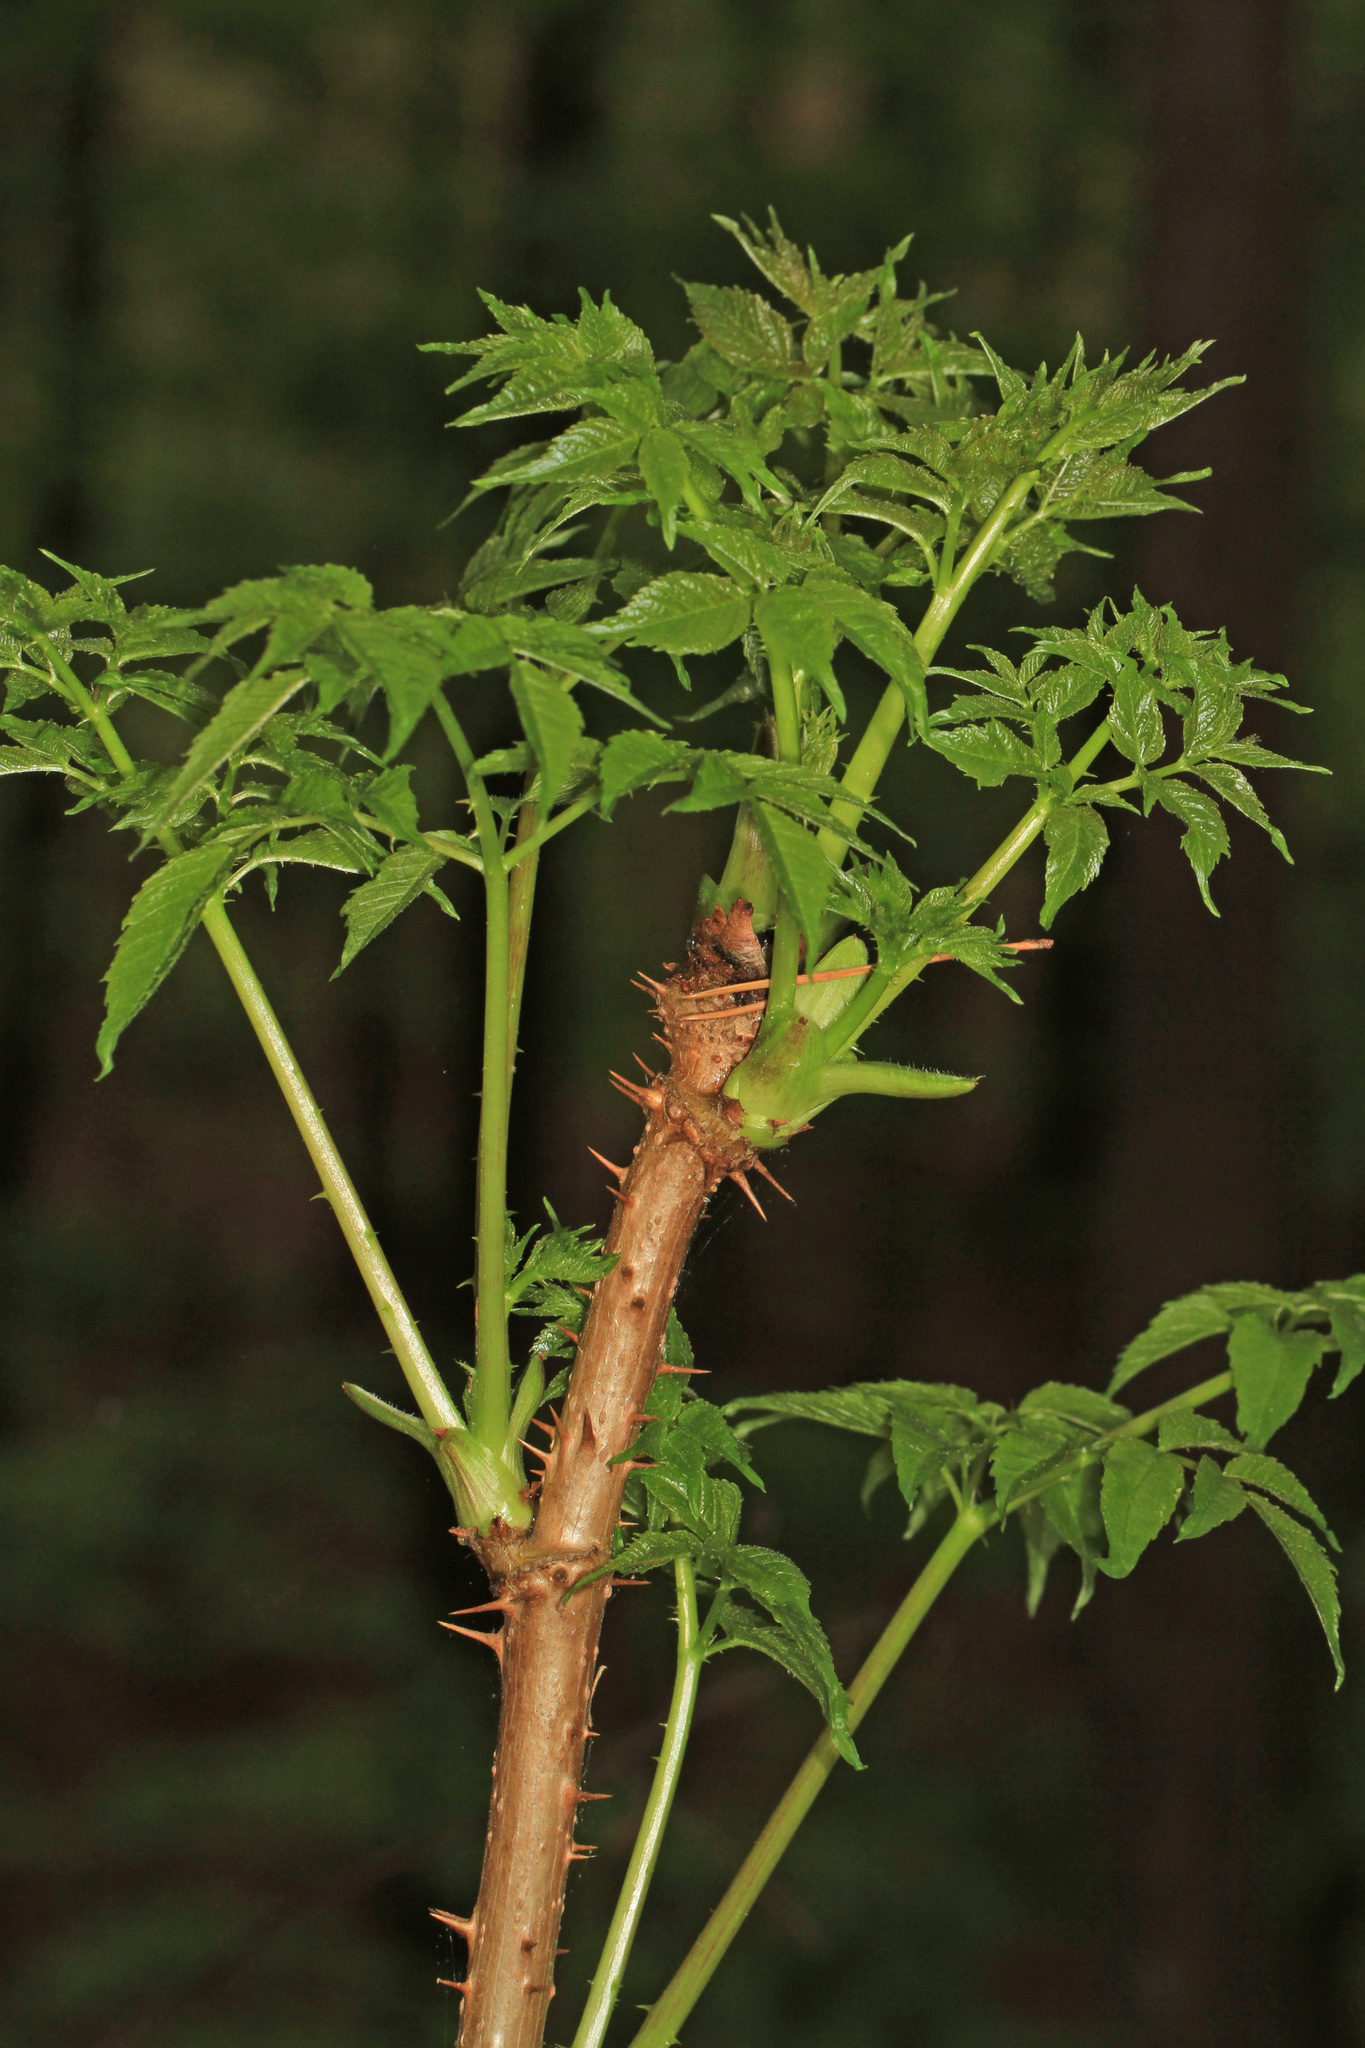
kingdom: Plantae
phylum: Tracheophyta
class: Magnoliopsida
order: Apiales
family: Araliaceae
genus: Aralia
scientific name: Aralia spinosa
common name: Hercules'-club
